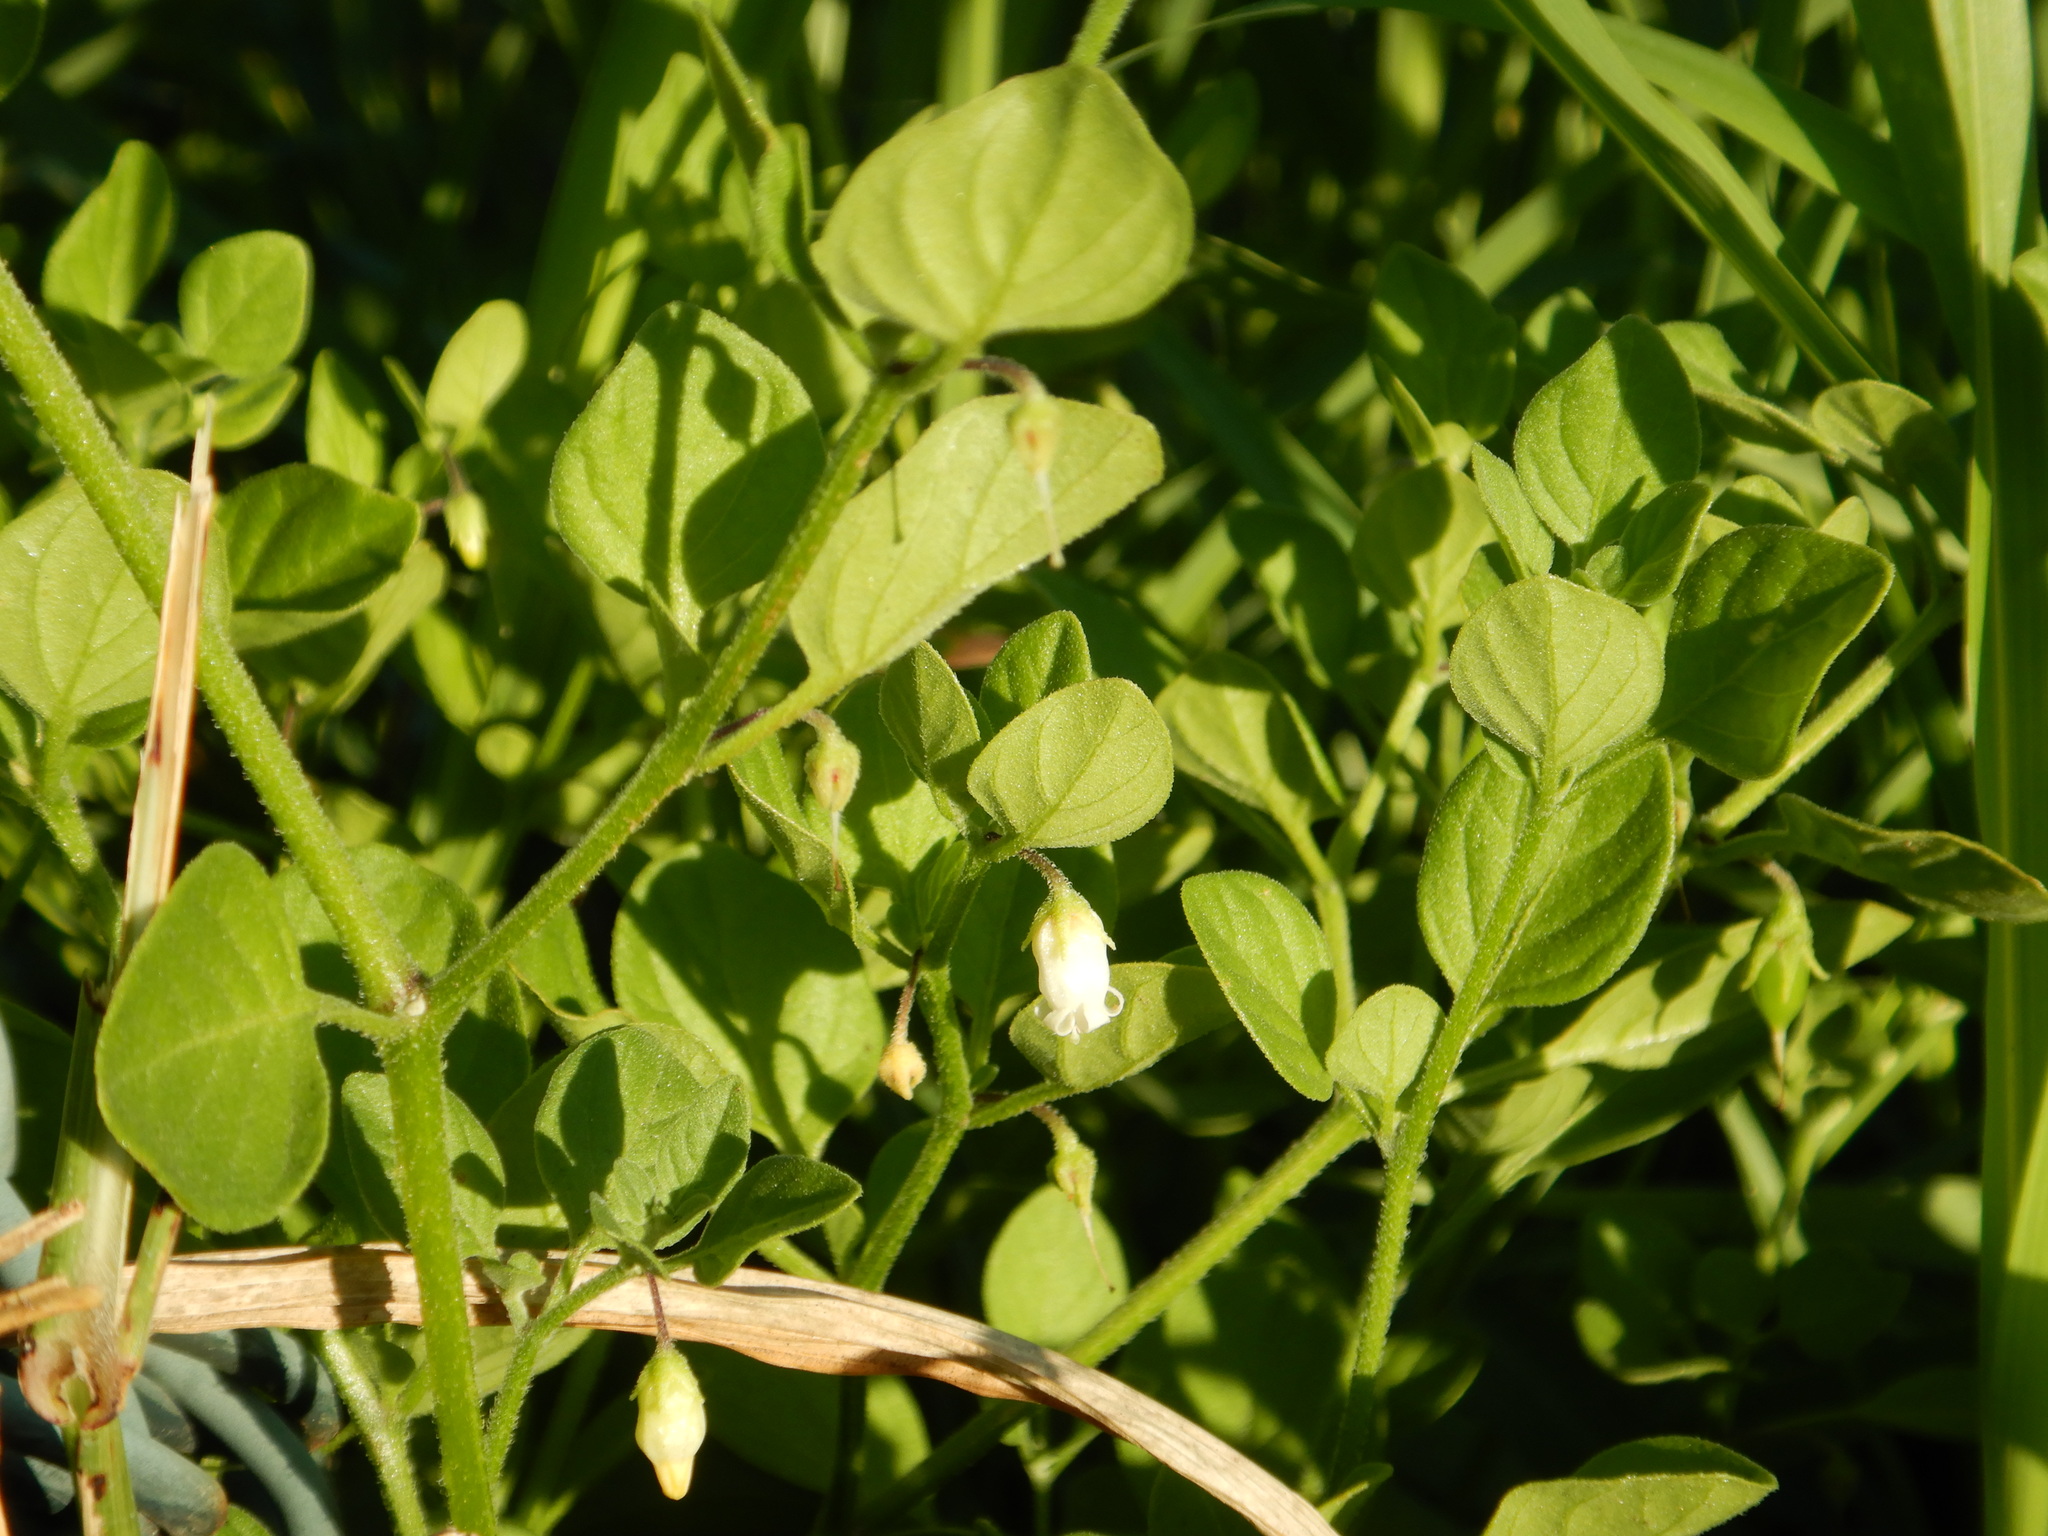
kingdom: Plantae
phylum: Tracheophyta
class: Magnoliopsida
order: Solanales
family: Solanaceae
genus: Salpichroa
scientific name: Salpichroa origanifolia
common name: Lily-of-the-valley-vine
